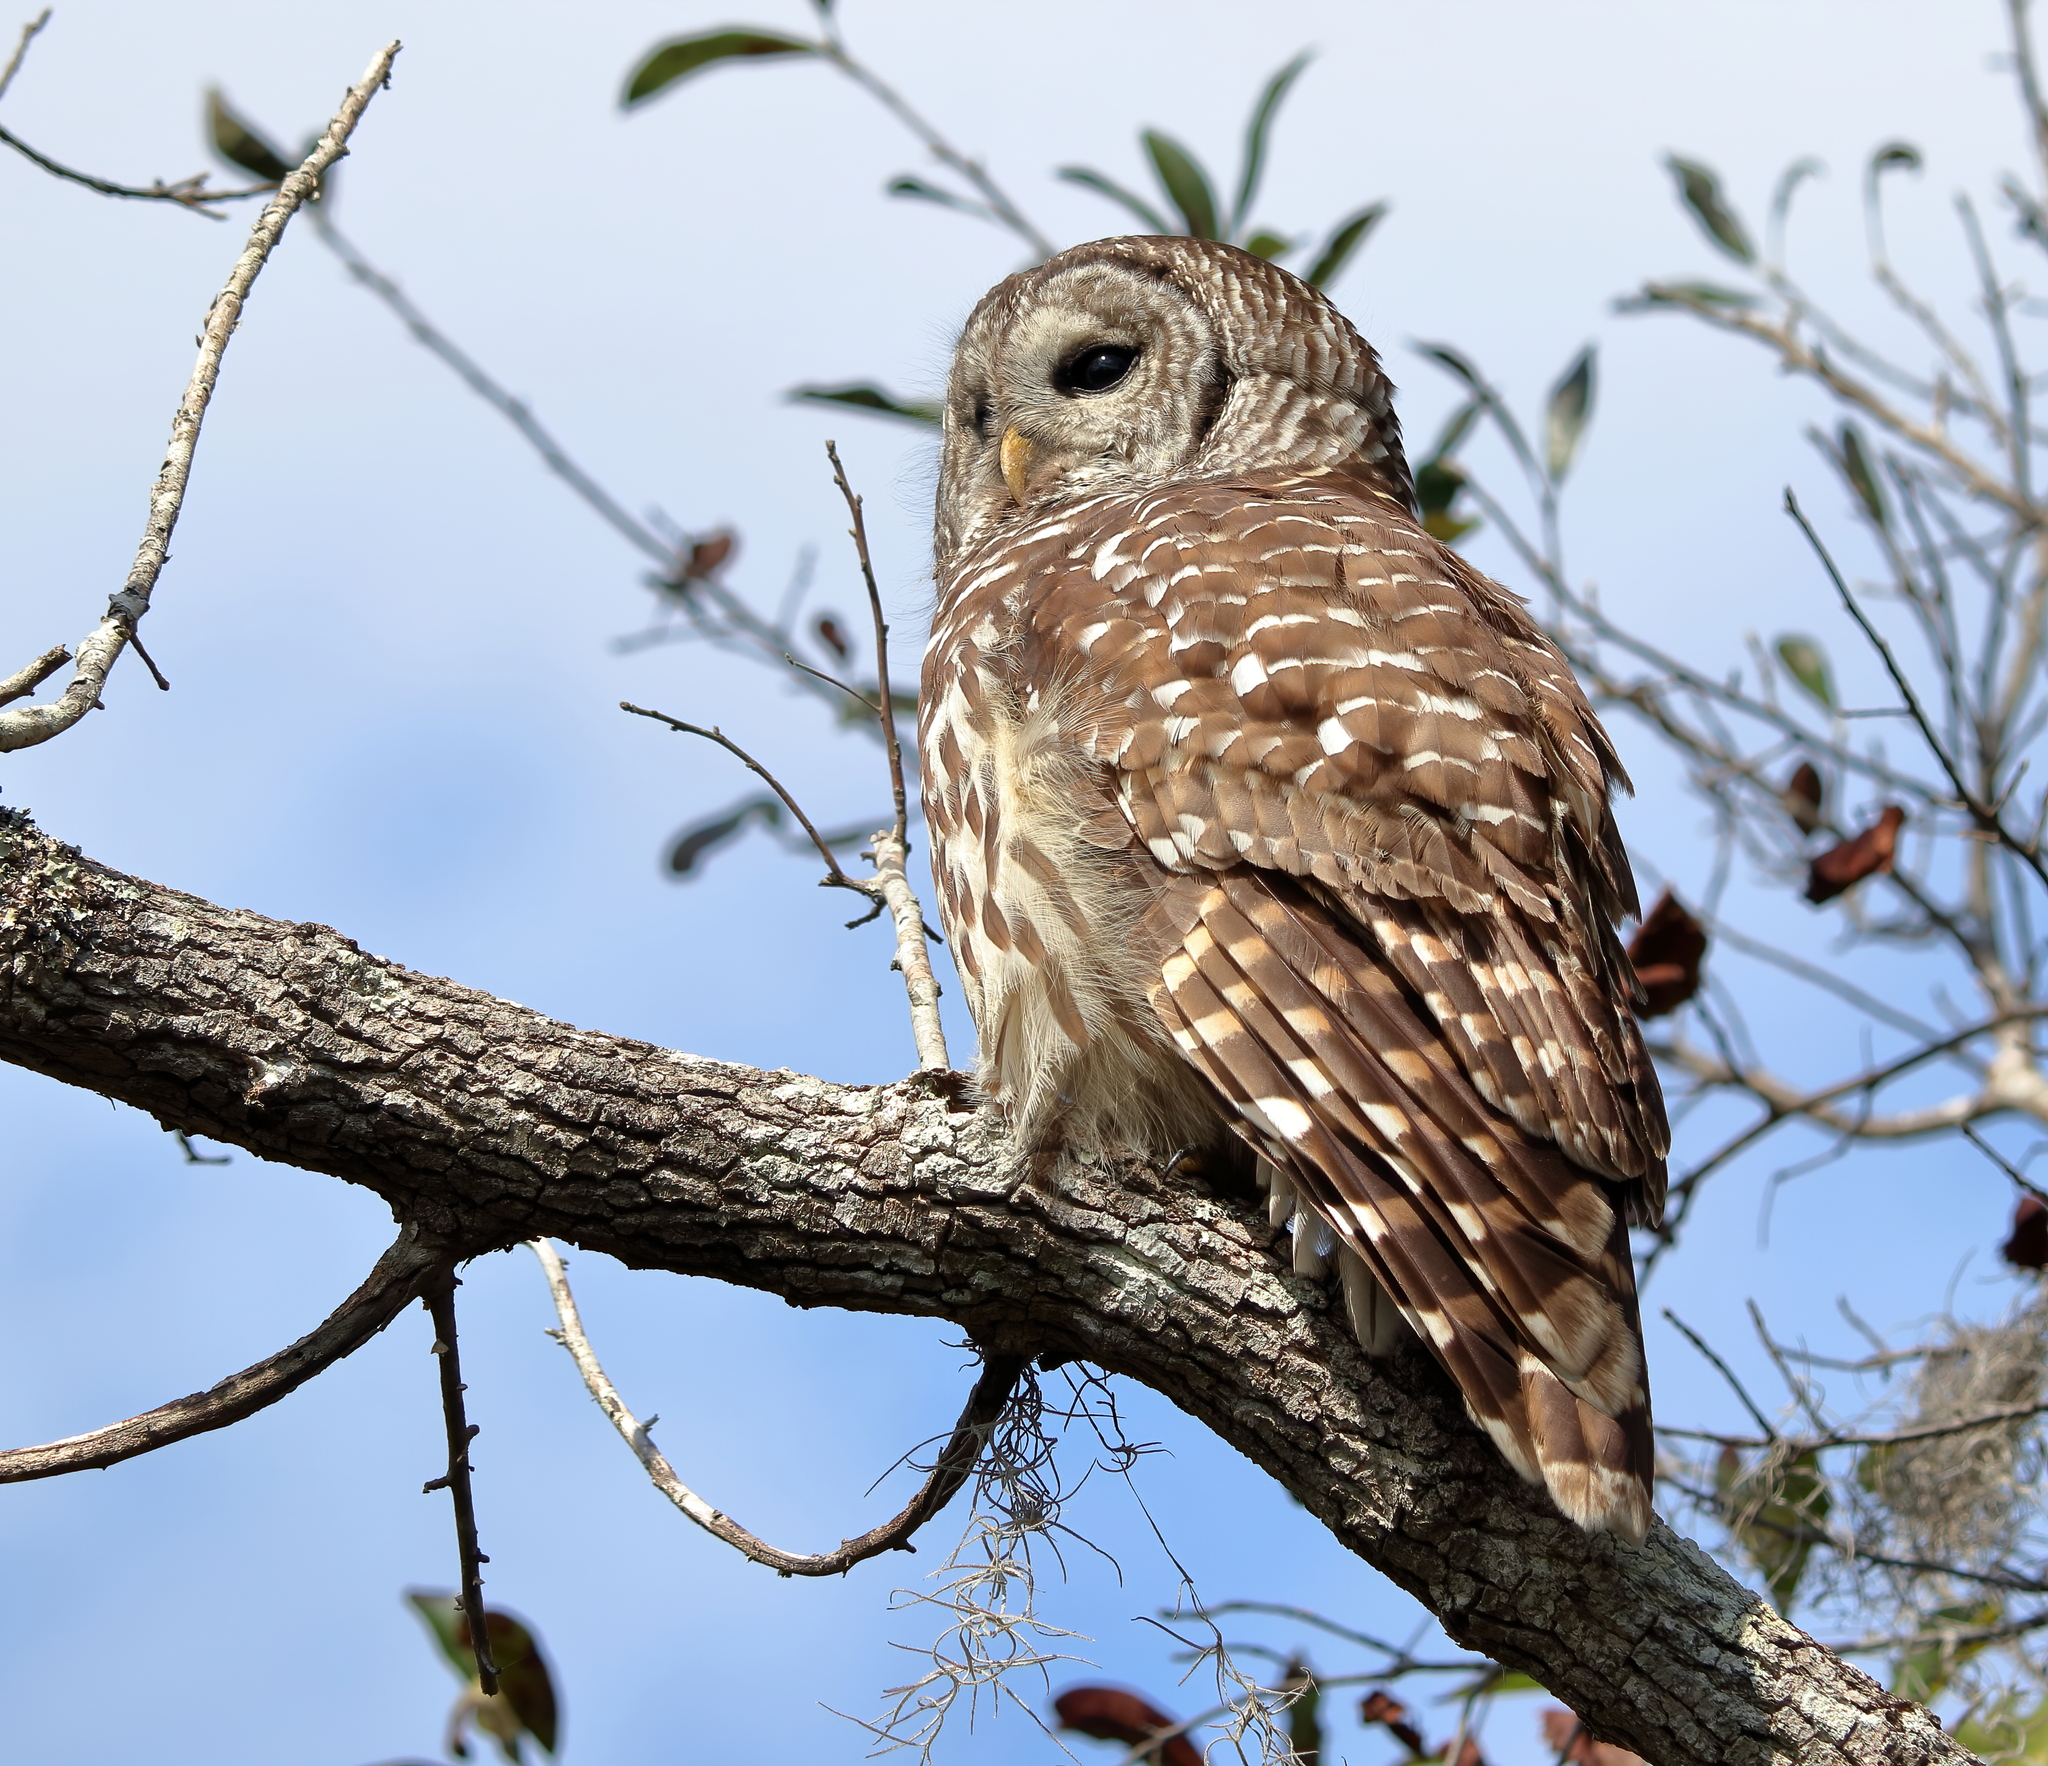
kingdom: Animalia
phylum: Chordata
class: Aves
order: Strigiformes
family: Strigidae
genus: Strix
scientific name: Strix varia
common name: Barred owl
